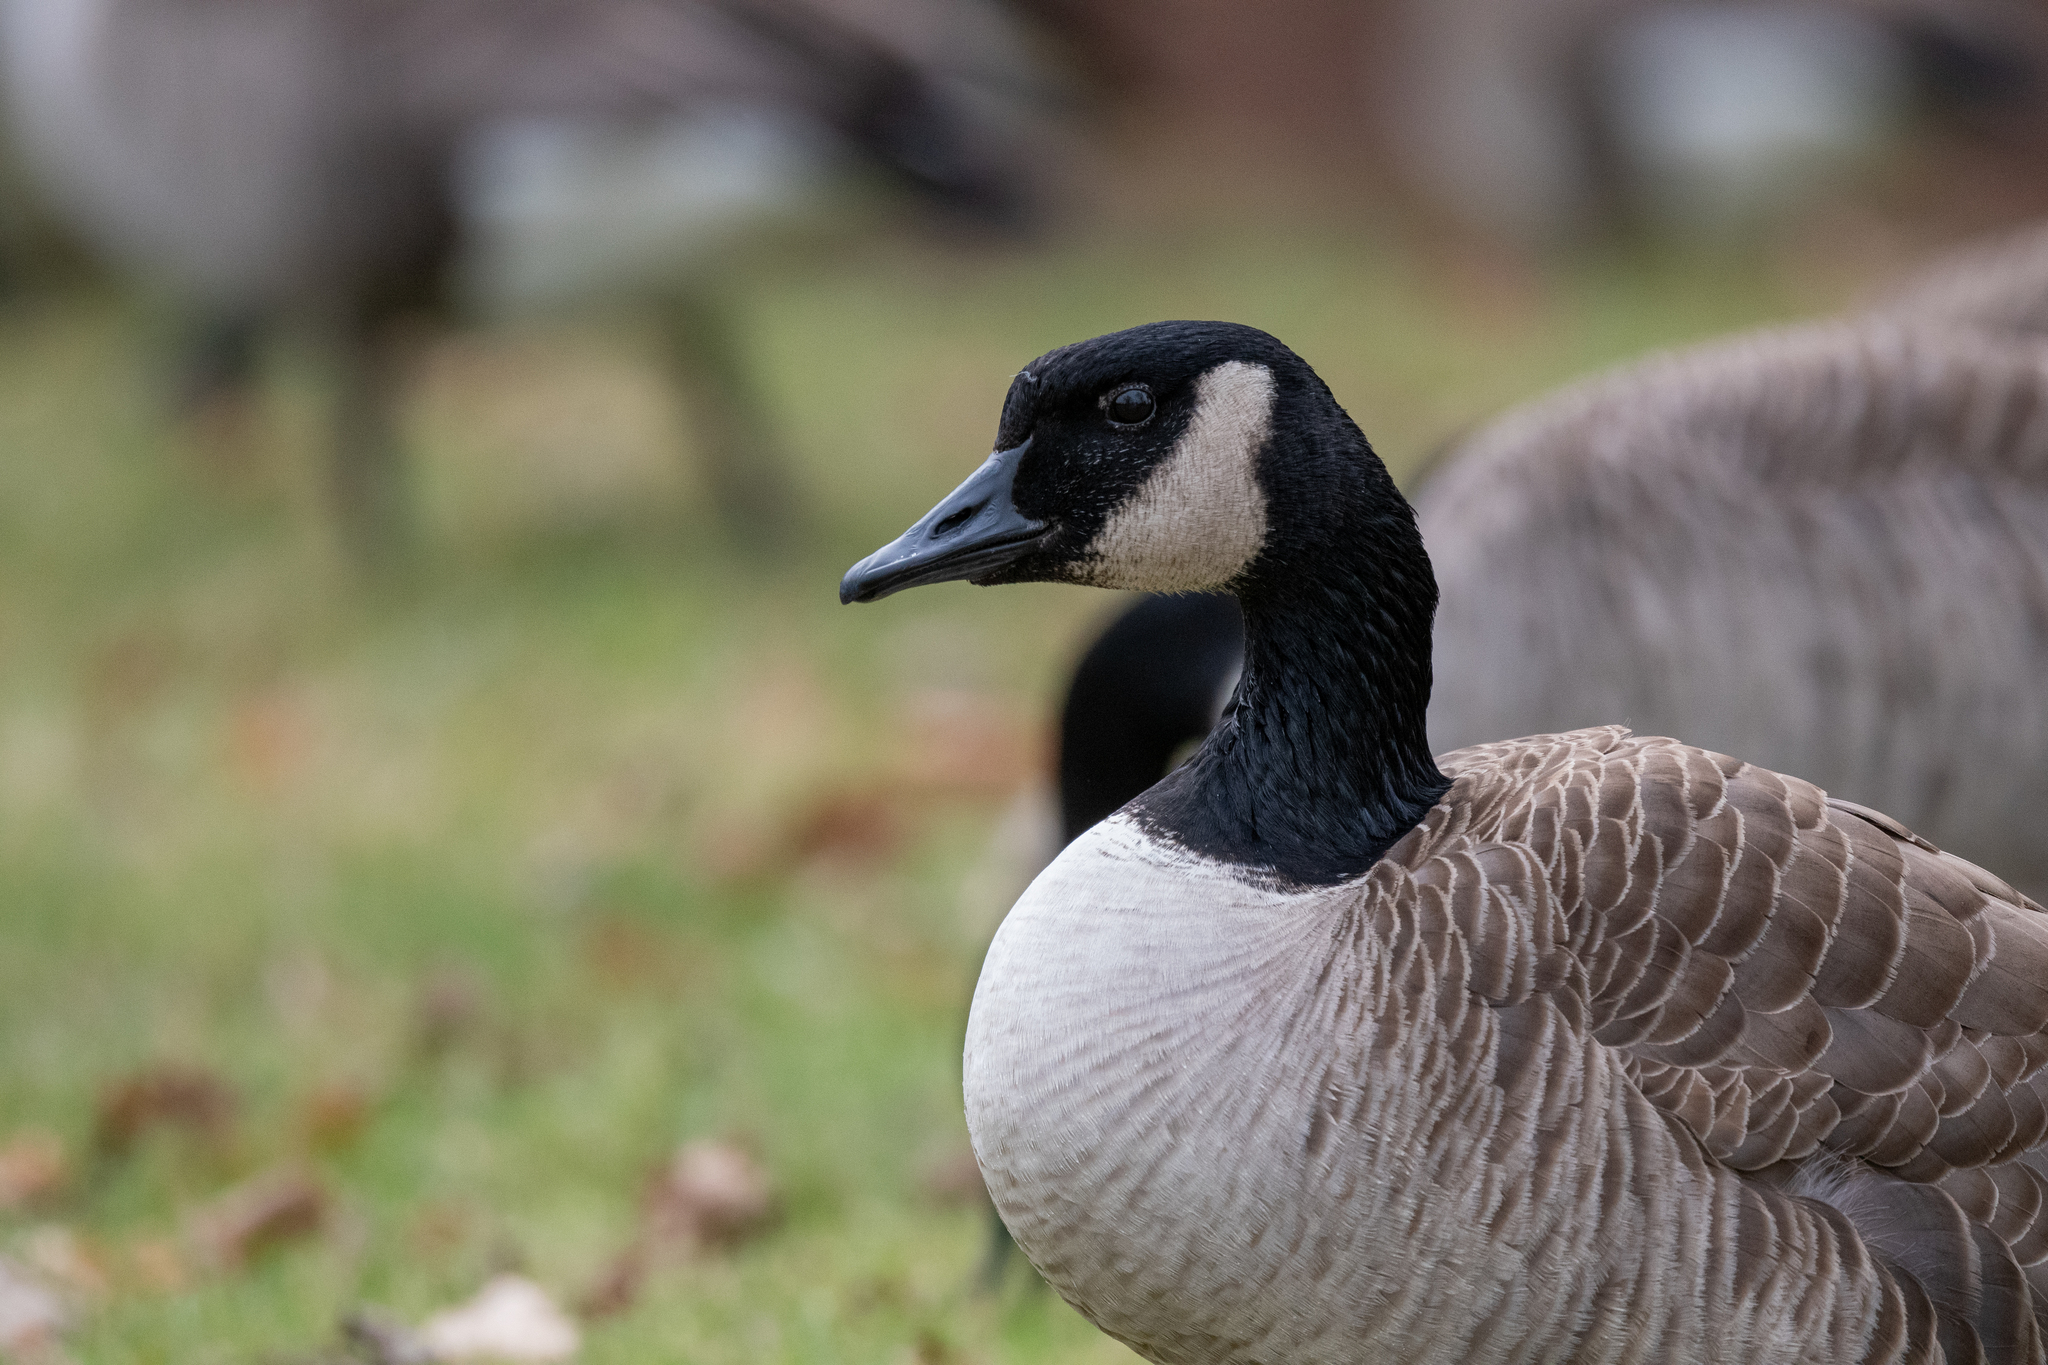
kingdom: Animalia
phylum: Chordata
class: Aves
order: Anseriformes
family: Anatidae
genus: Branta
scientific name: Branta canadensis
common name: Canada goose
